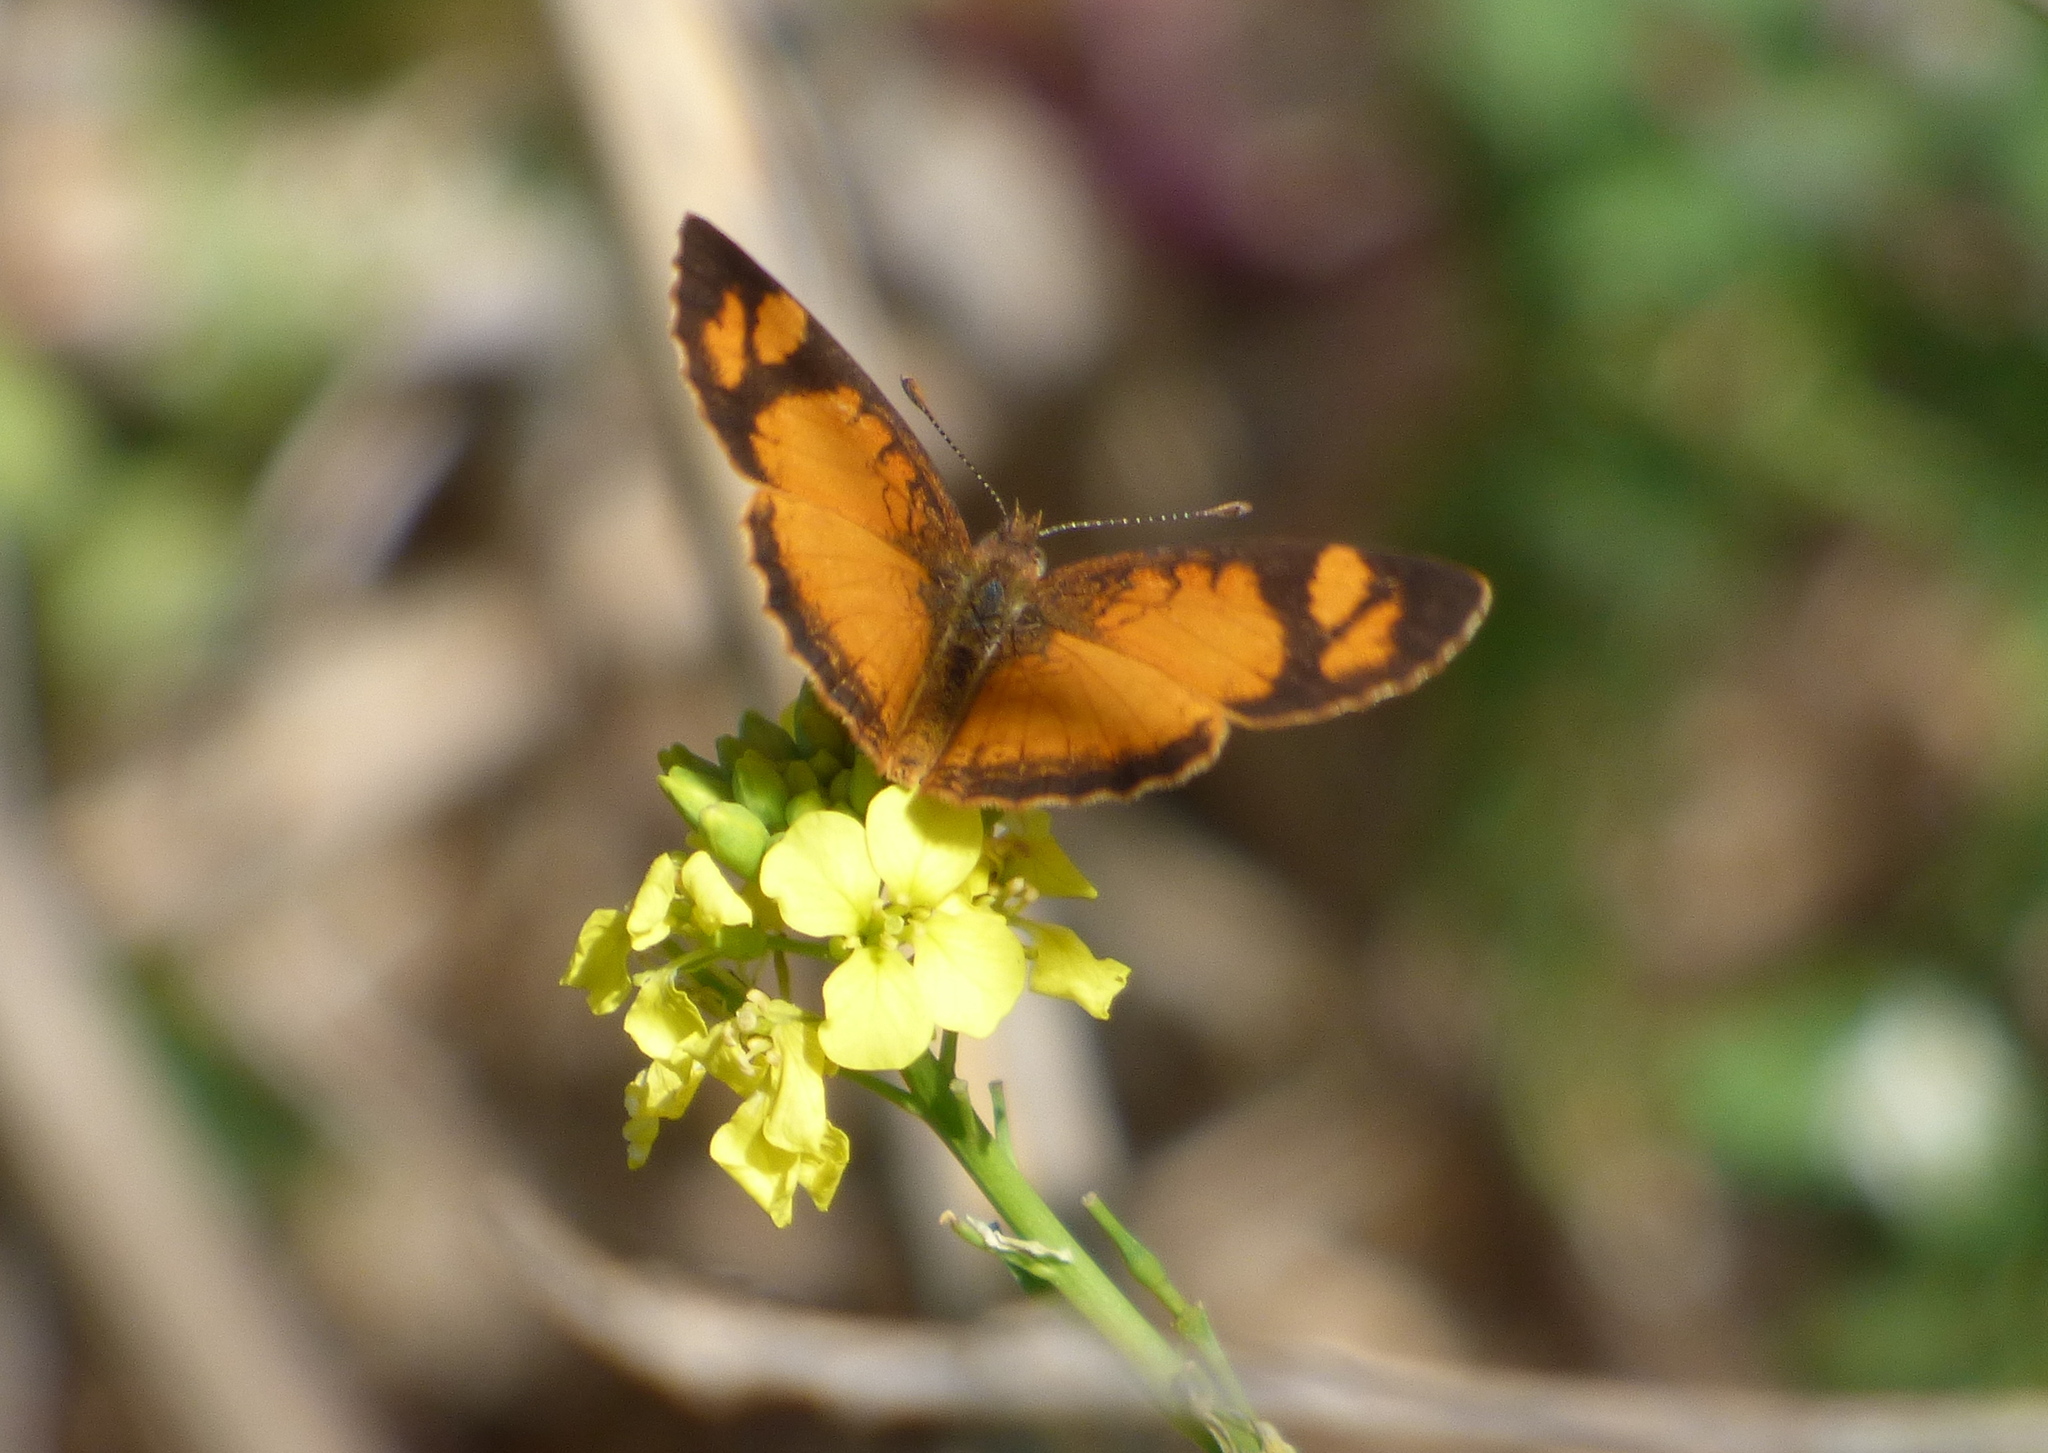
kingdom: Animalia
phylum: Arthropoda
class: Insecta
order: Lepidoptera
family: Nymphalidae
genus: Tegosa
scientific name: Tegosa claudina
